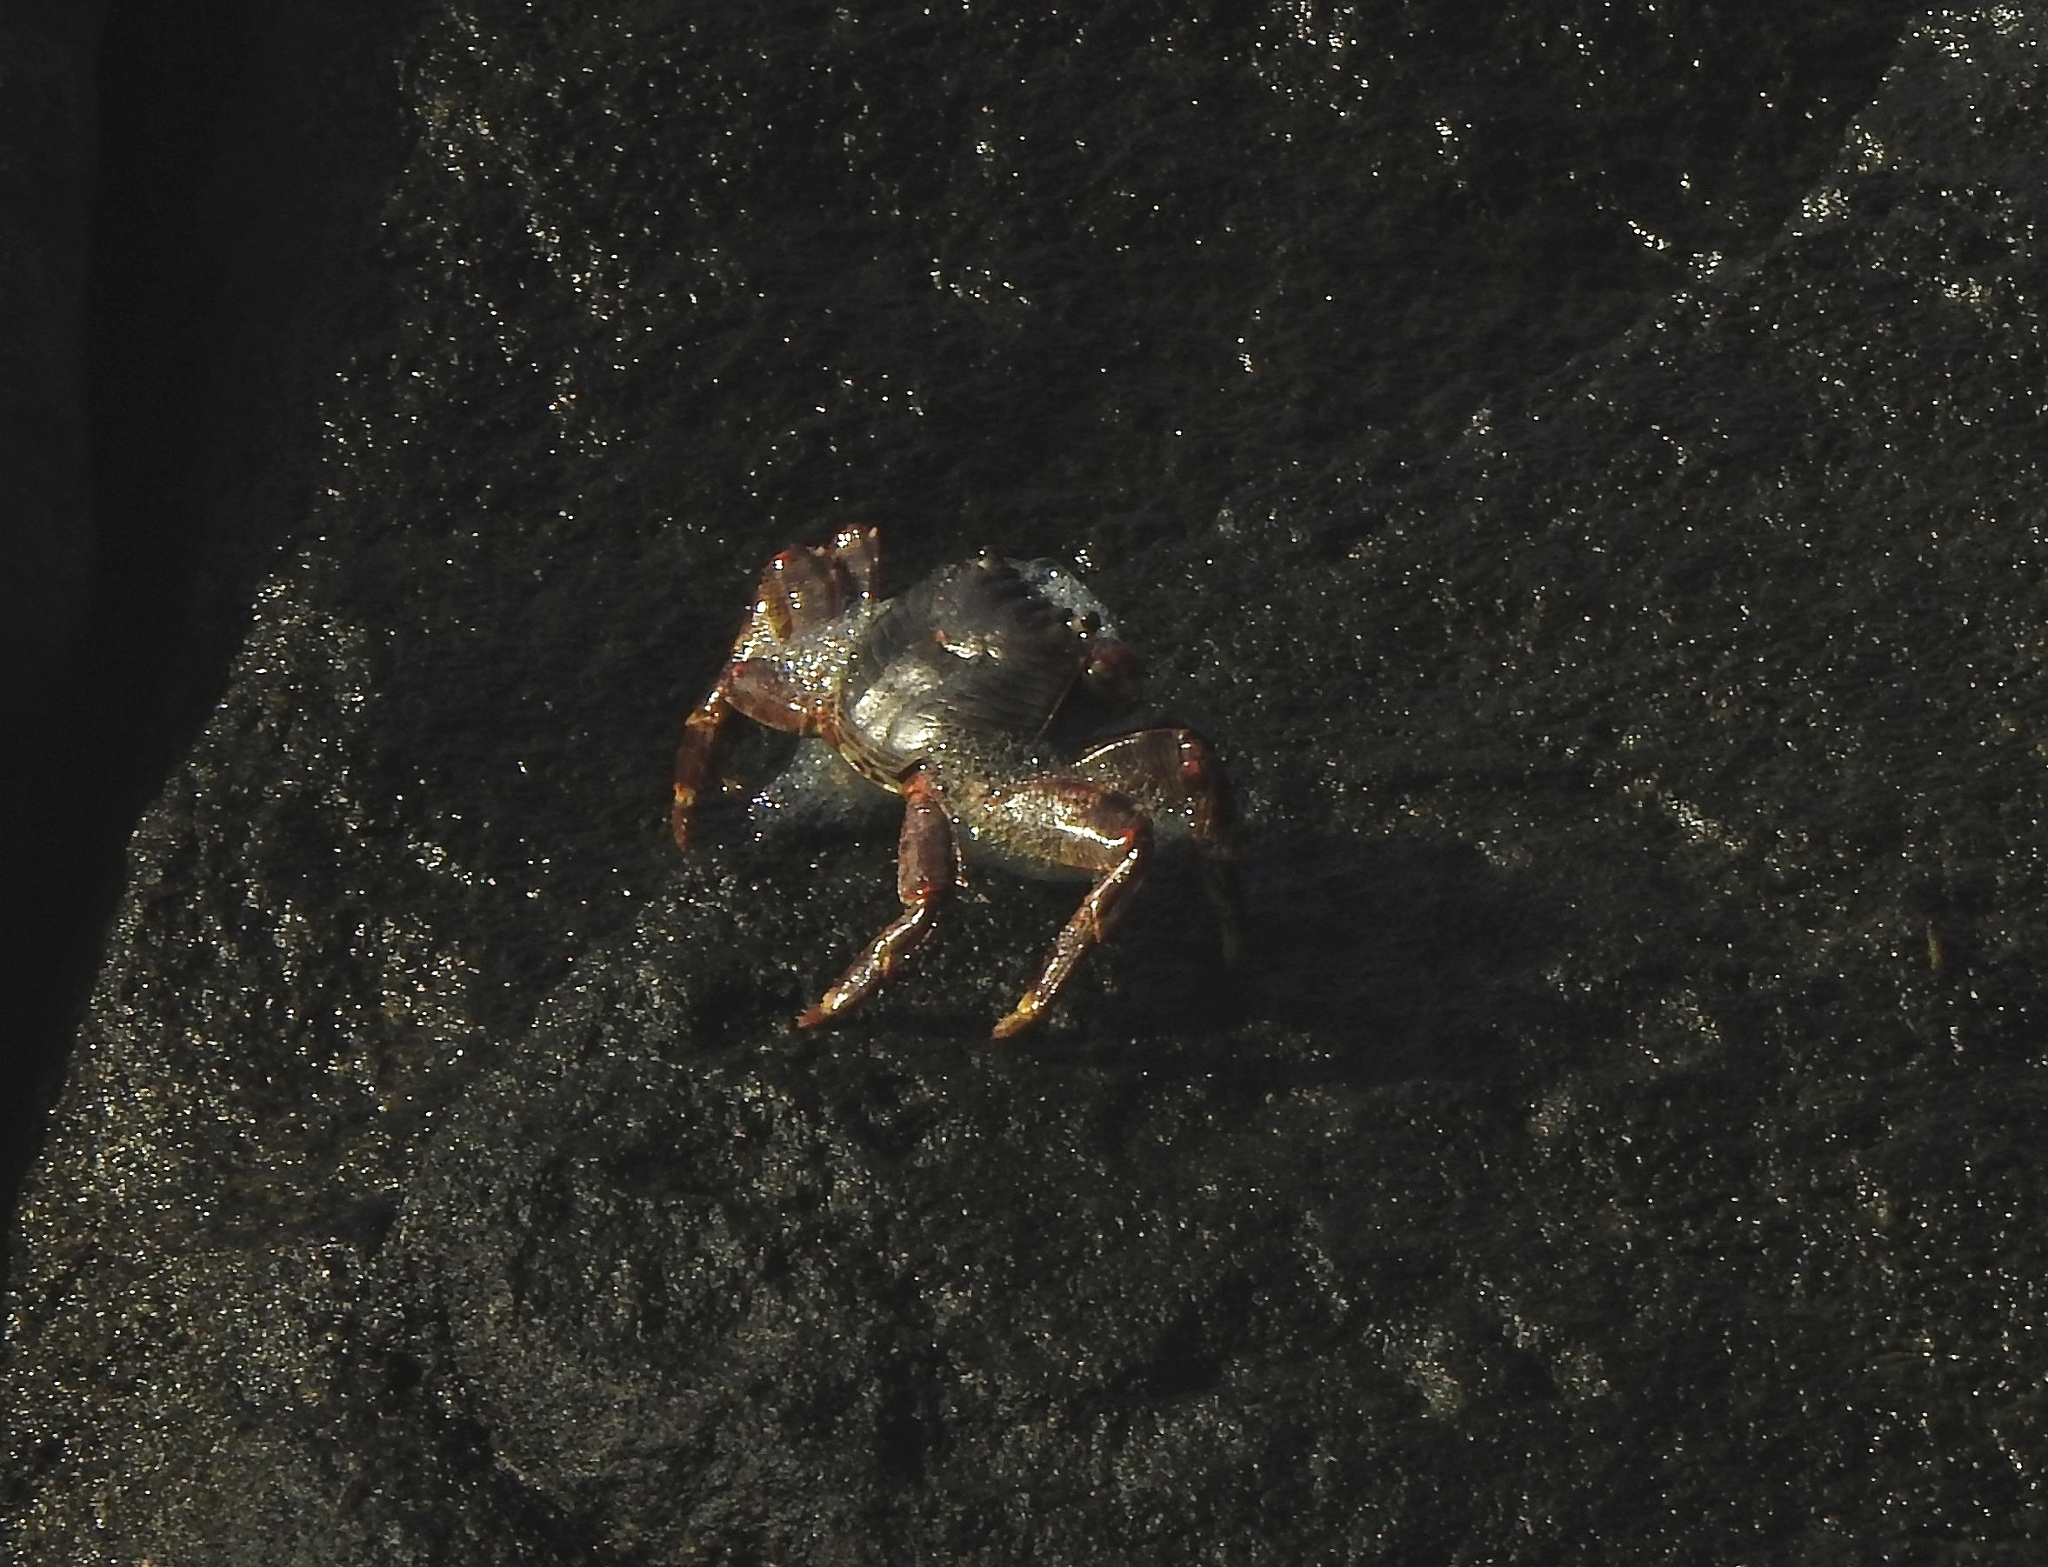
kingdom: Animalia
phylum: Arthropoda
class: Malacostraca
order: Decapoda
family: Grapsidae
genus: Grapsus
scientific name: Grapsus albolineatus
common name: Mottled lightfoot crab
